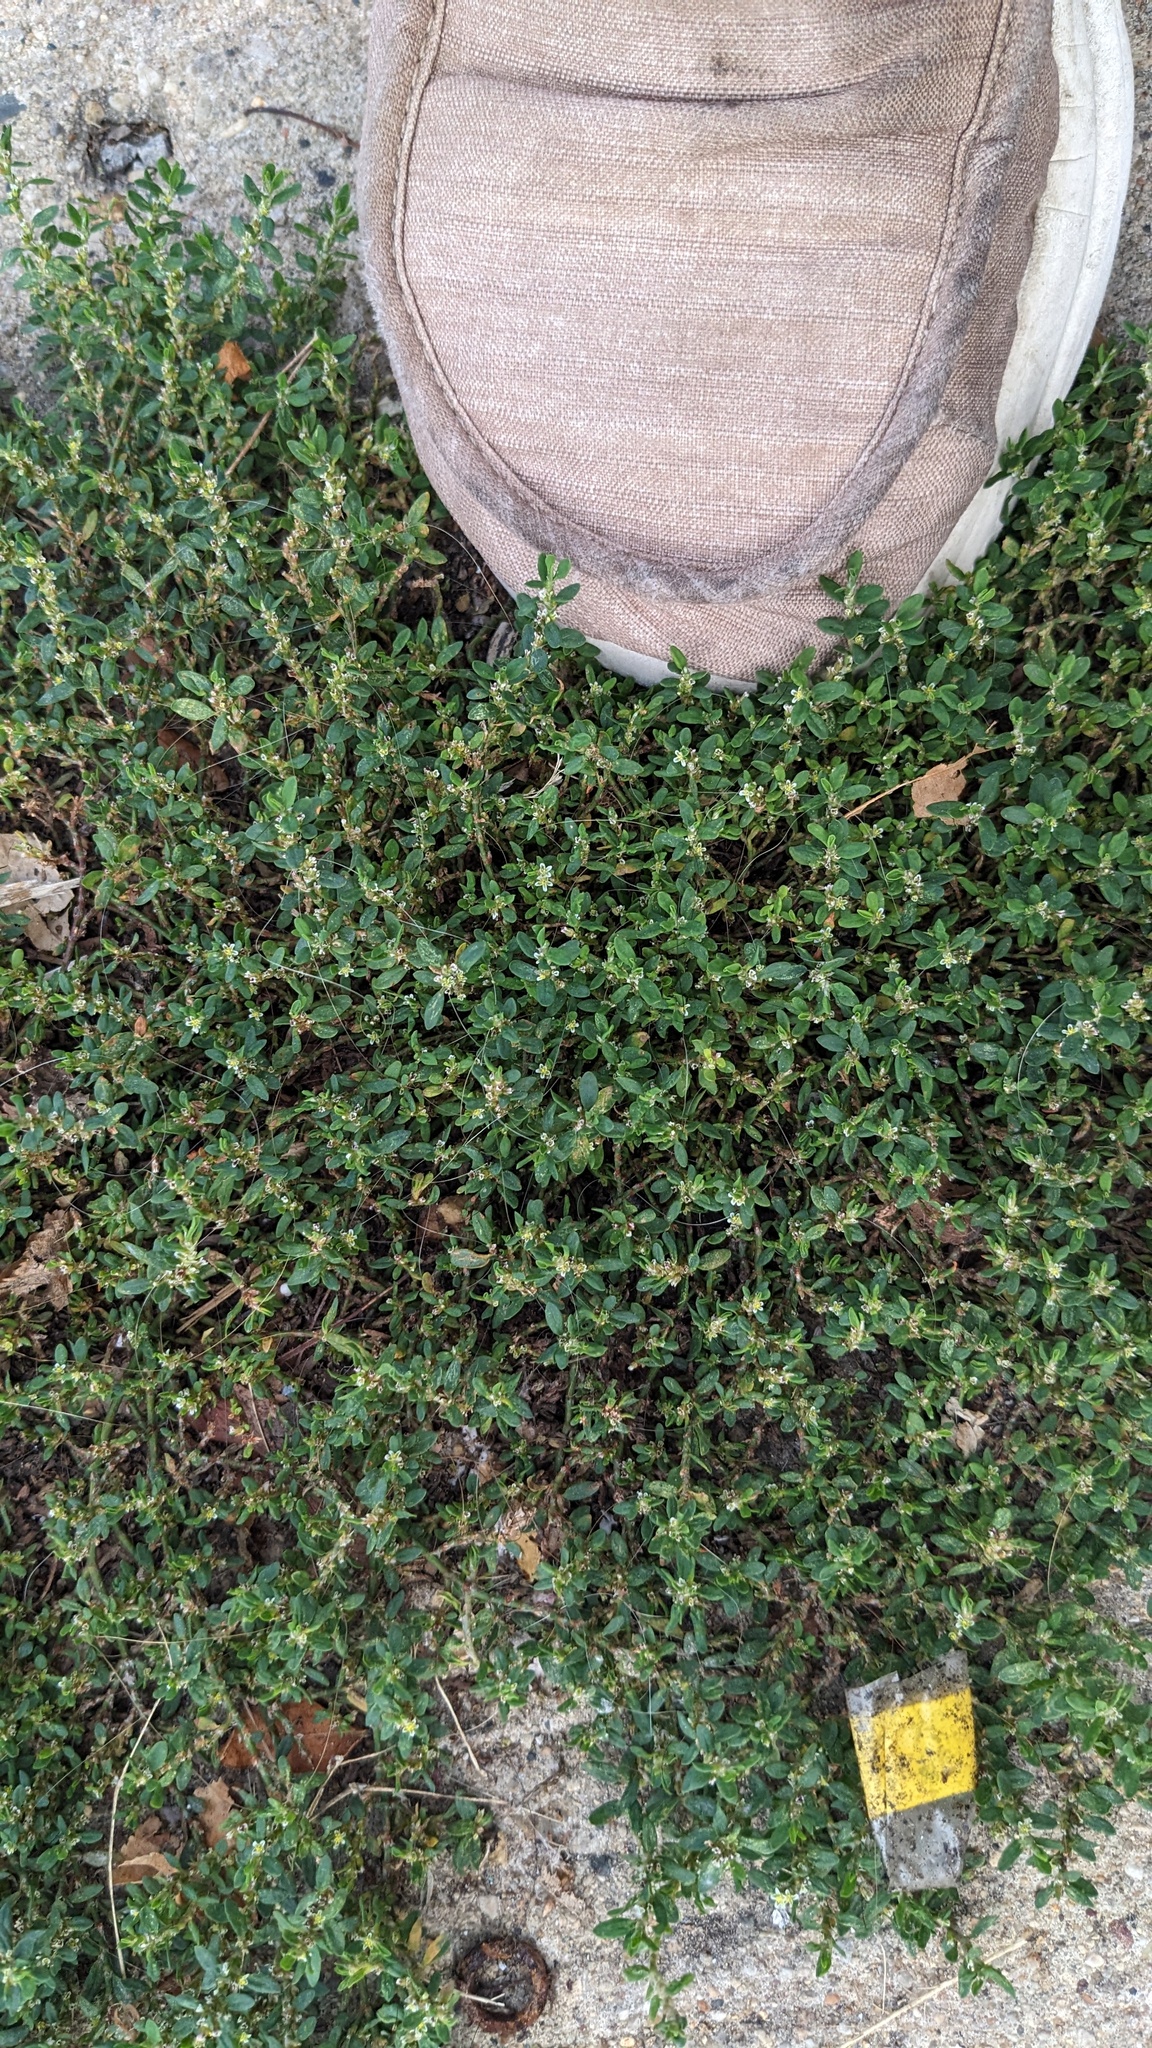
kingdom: Plantae
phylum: Tracheophyta
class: Magnoliopsida
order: Caryophyllales
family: Polygonaceae
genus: Polygonum
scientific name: Polygonum aviculare
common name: Prostrate knotweed
